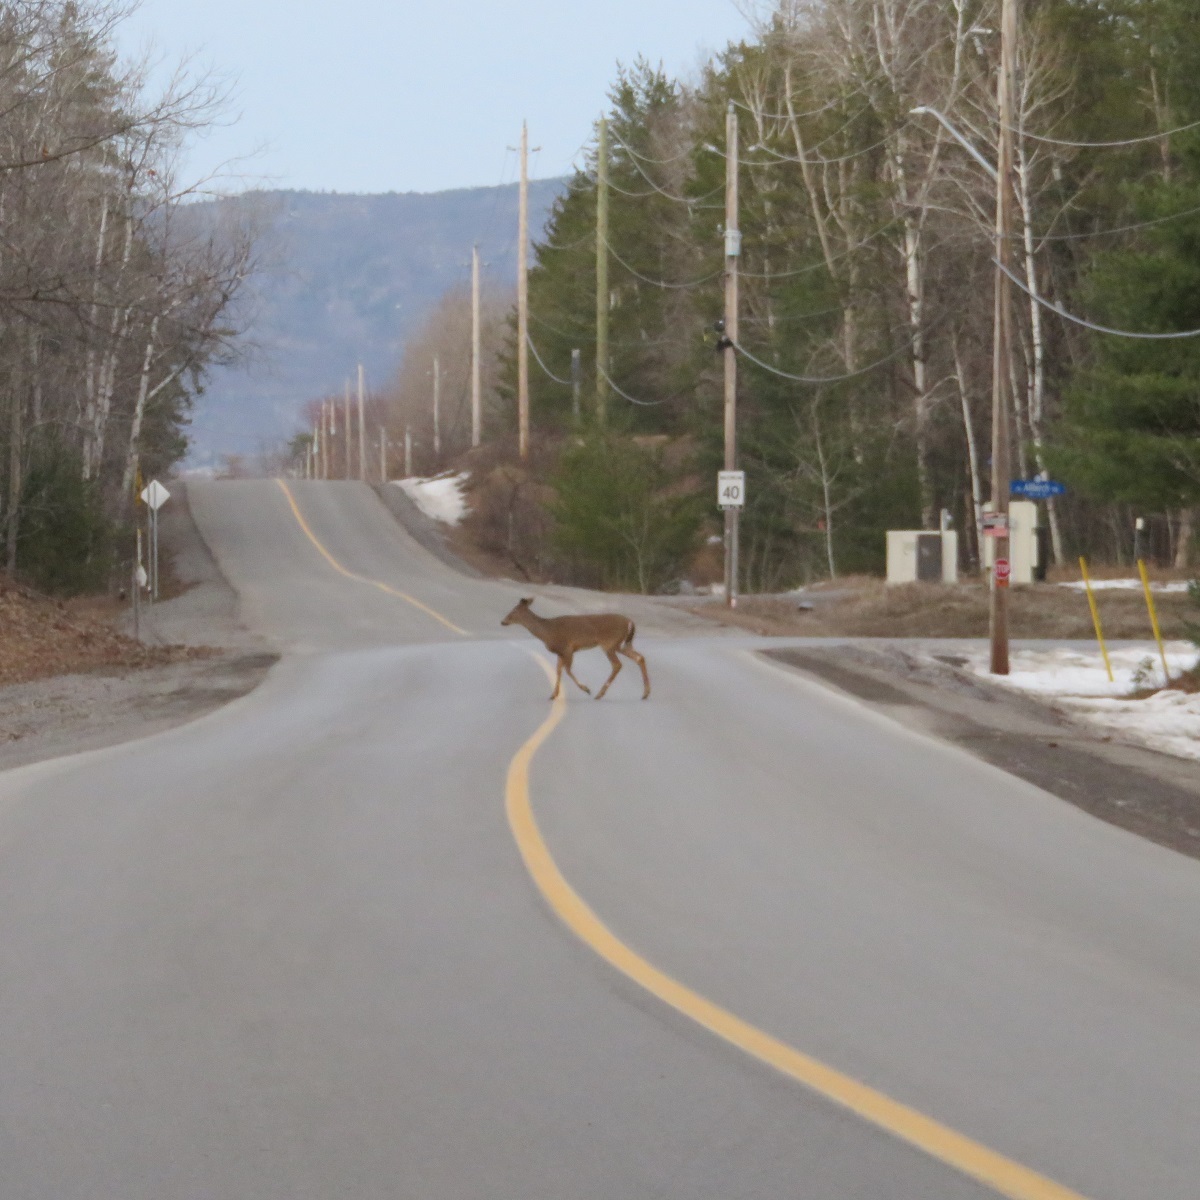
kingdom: Animalia
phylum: Chordata
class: Mammalia
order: Artiodactyla
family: Cervidae
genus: Odocoileus
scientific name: Odocoileus virginianus
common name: White-tailed deer
